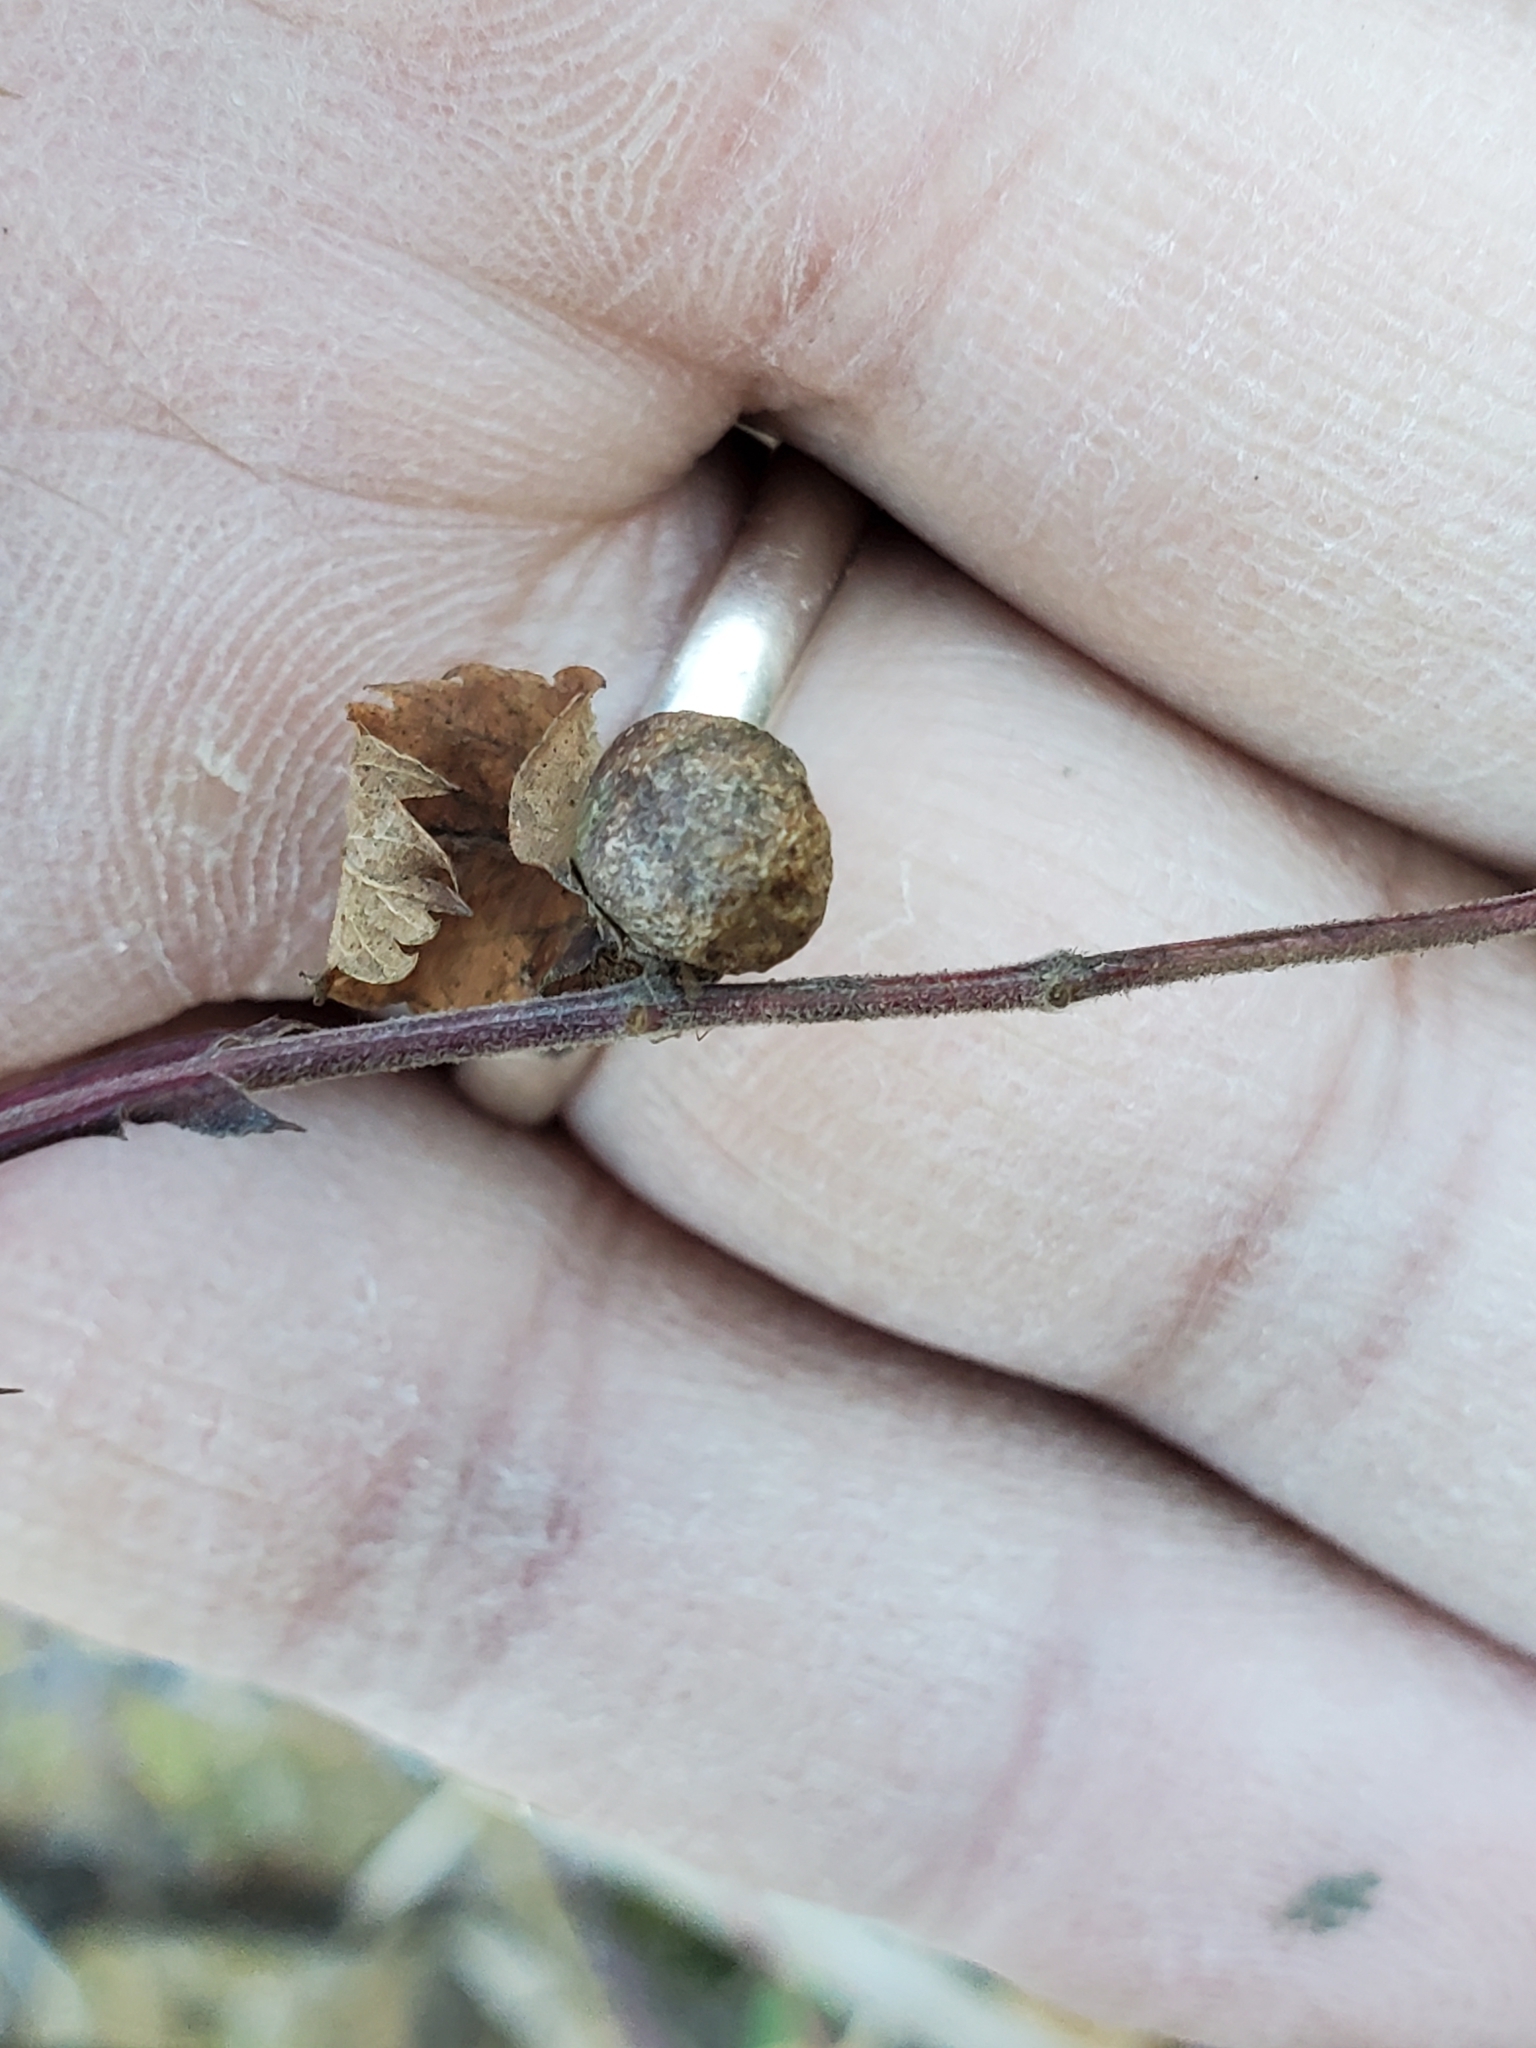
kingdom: Animalia
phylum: Arthropoda
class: Insecta
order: Hymenoptera
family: Cynipidae
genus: Diplolepis
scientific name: Diplolepis ignota
